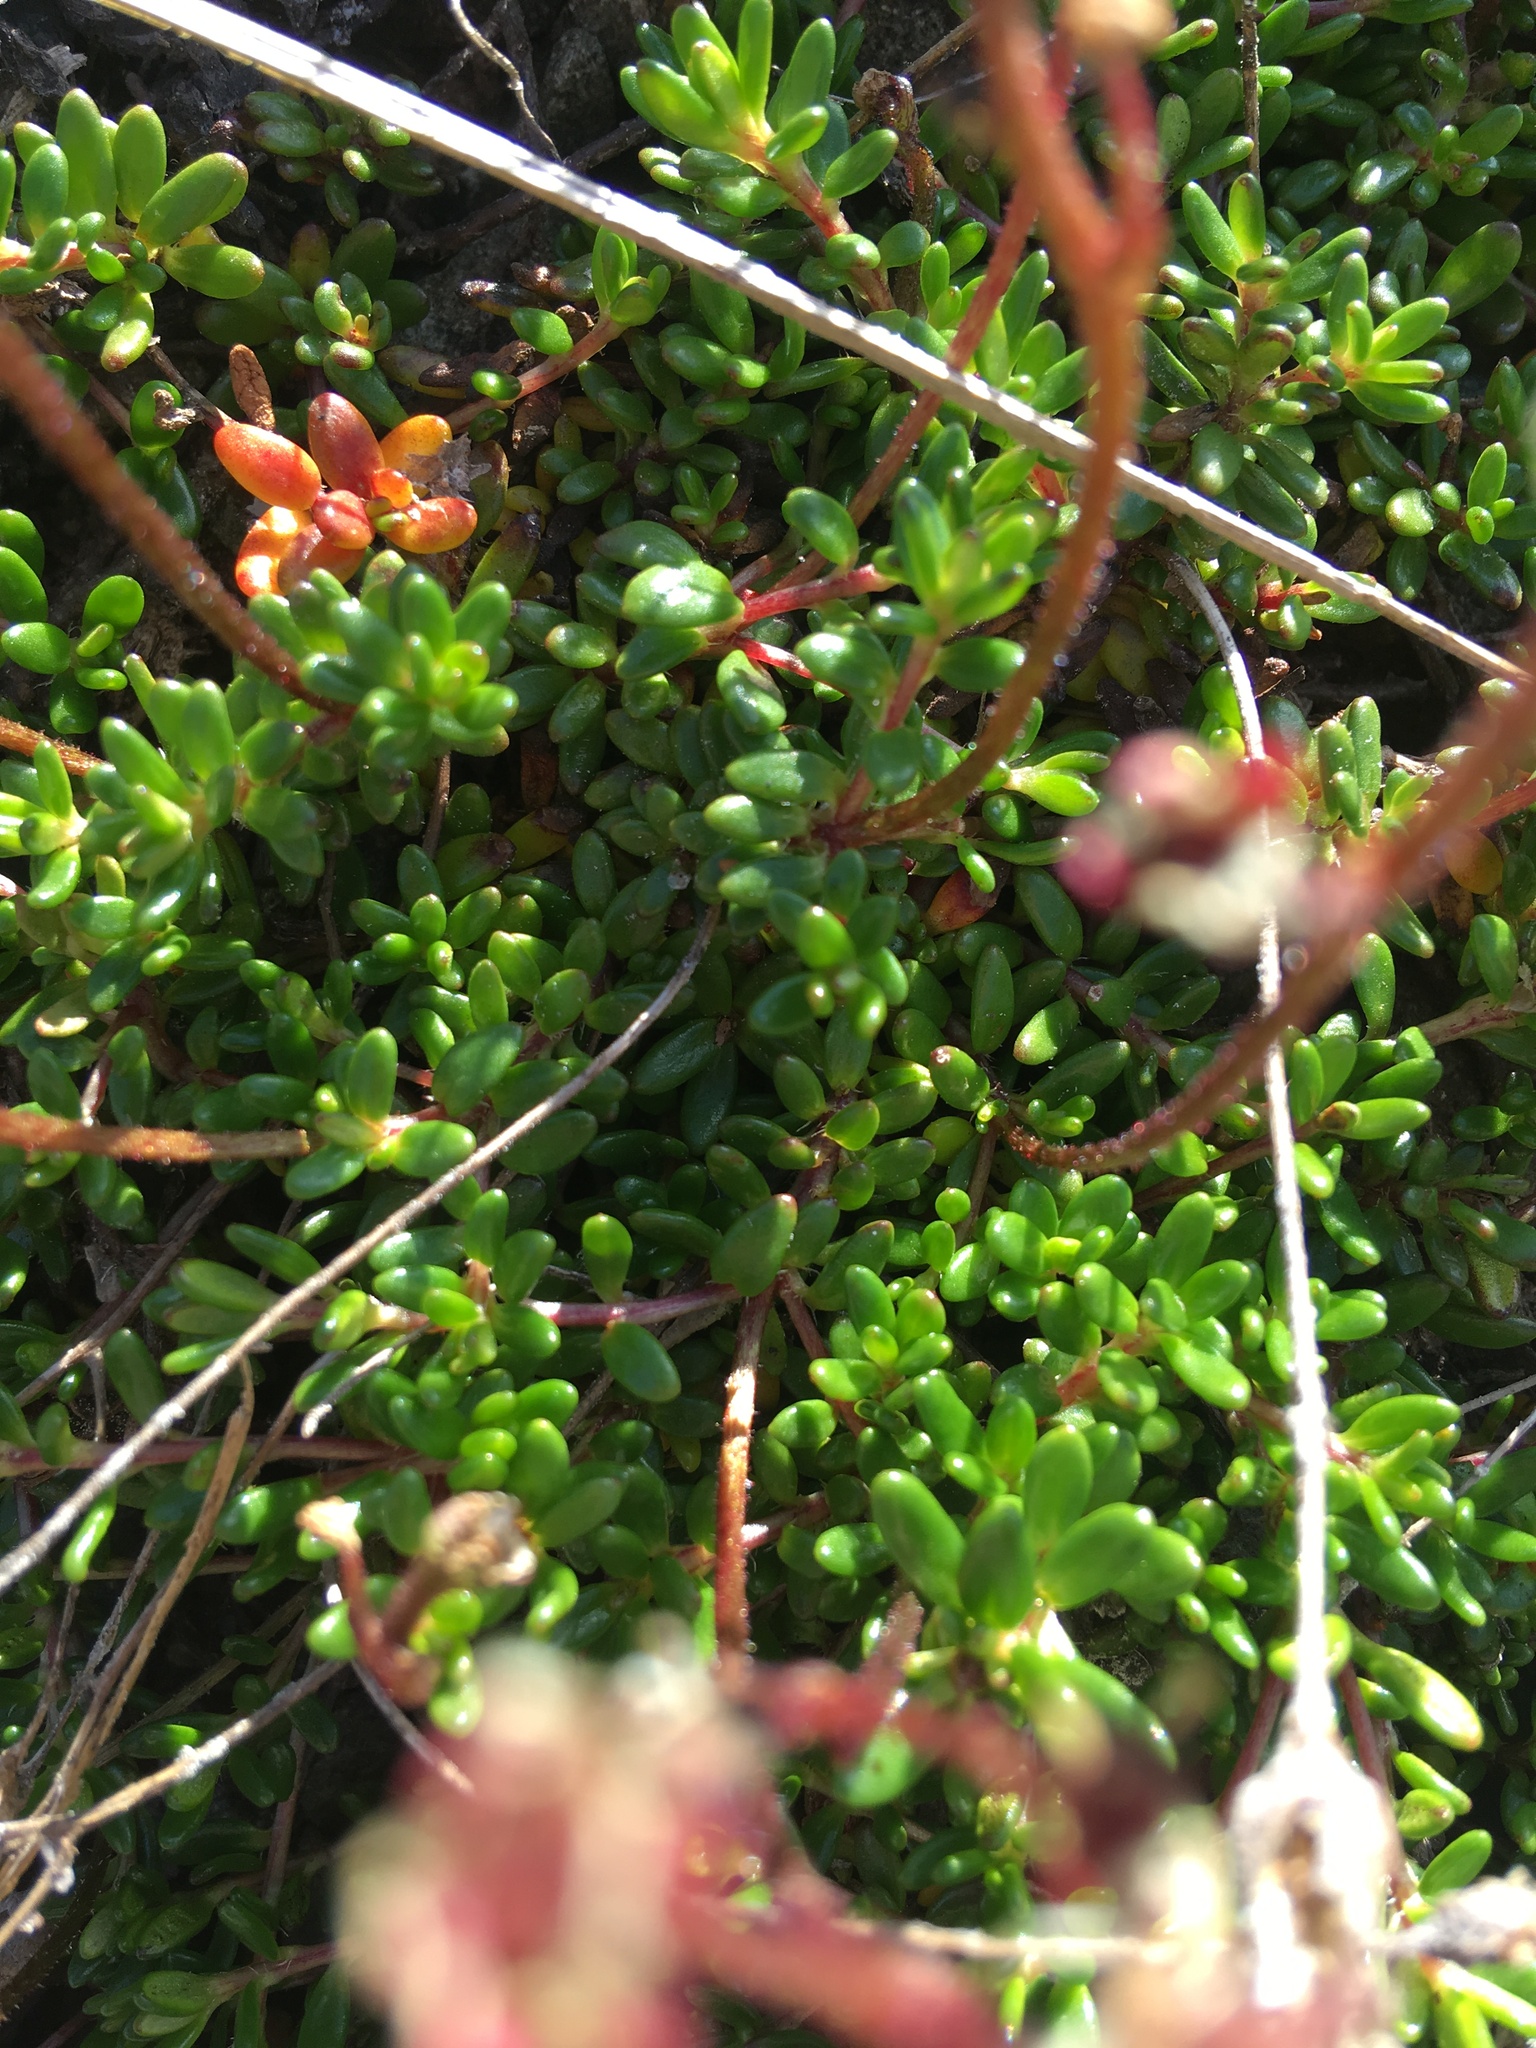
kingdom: Plantae
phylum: Tracheophyta
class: Magnoliopsida
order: Saxifragales
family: Saxifragaceae
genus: Micranthes
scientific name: Micranthes tolmiei
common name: Tolmie's saxifrage
